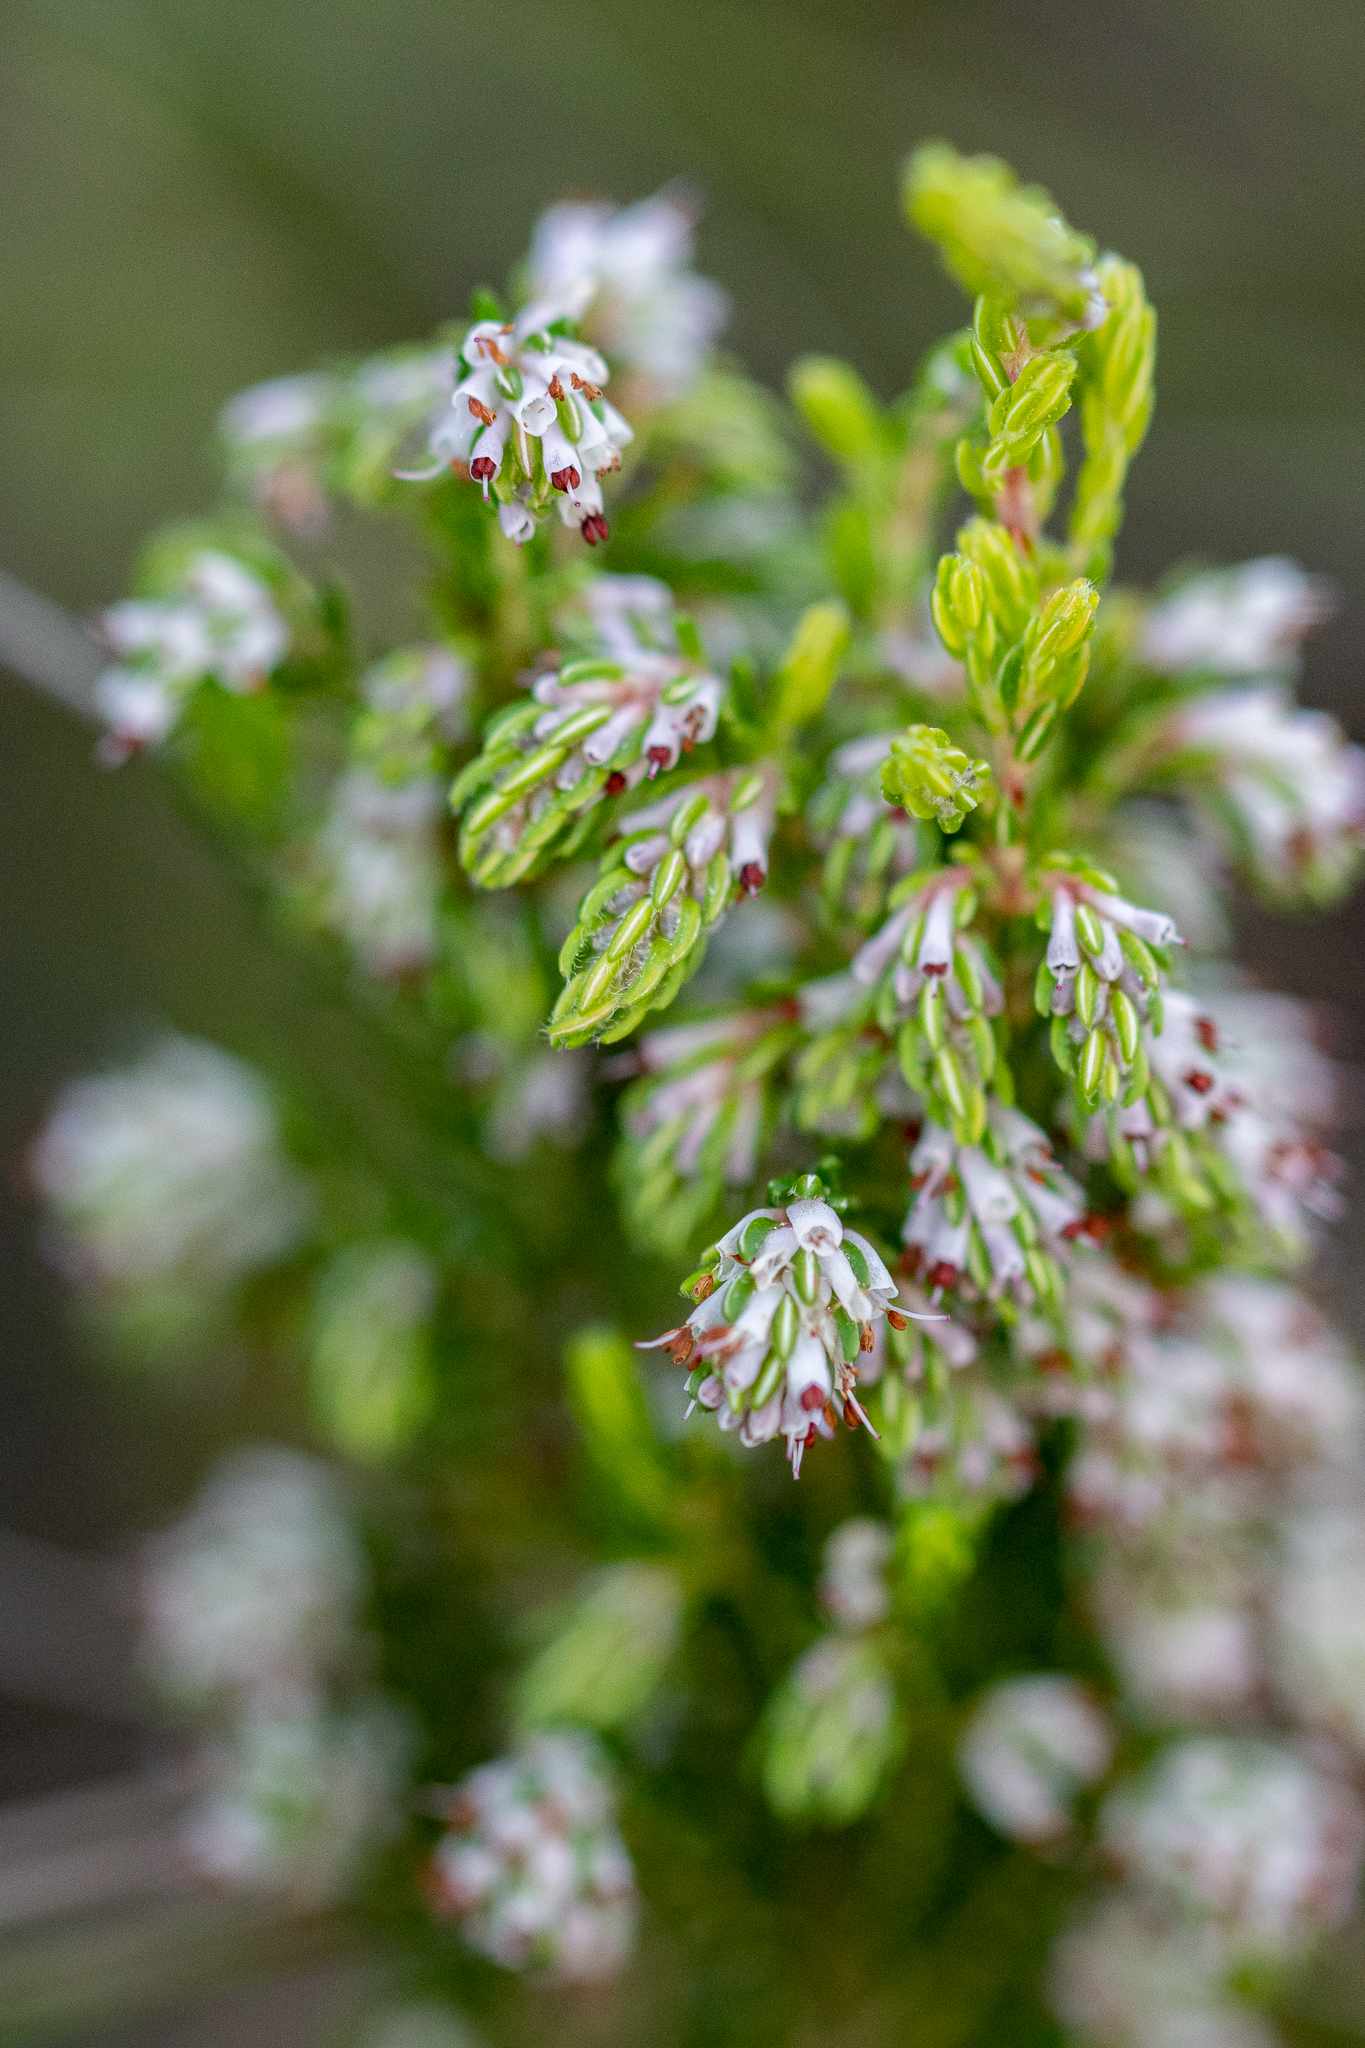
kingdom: Plantae
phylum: Tracheophyta
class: Magnoliopsida
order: Ericales
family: Ericaceae
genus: Erica
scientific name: Erica ecklonii
